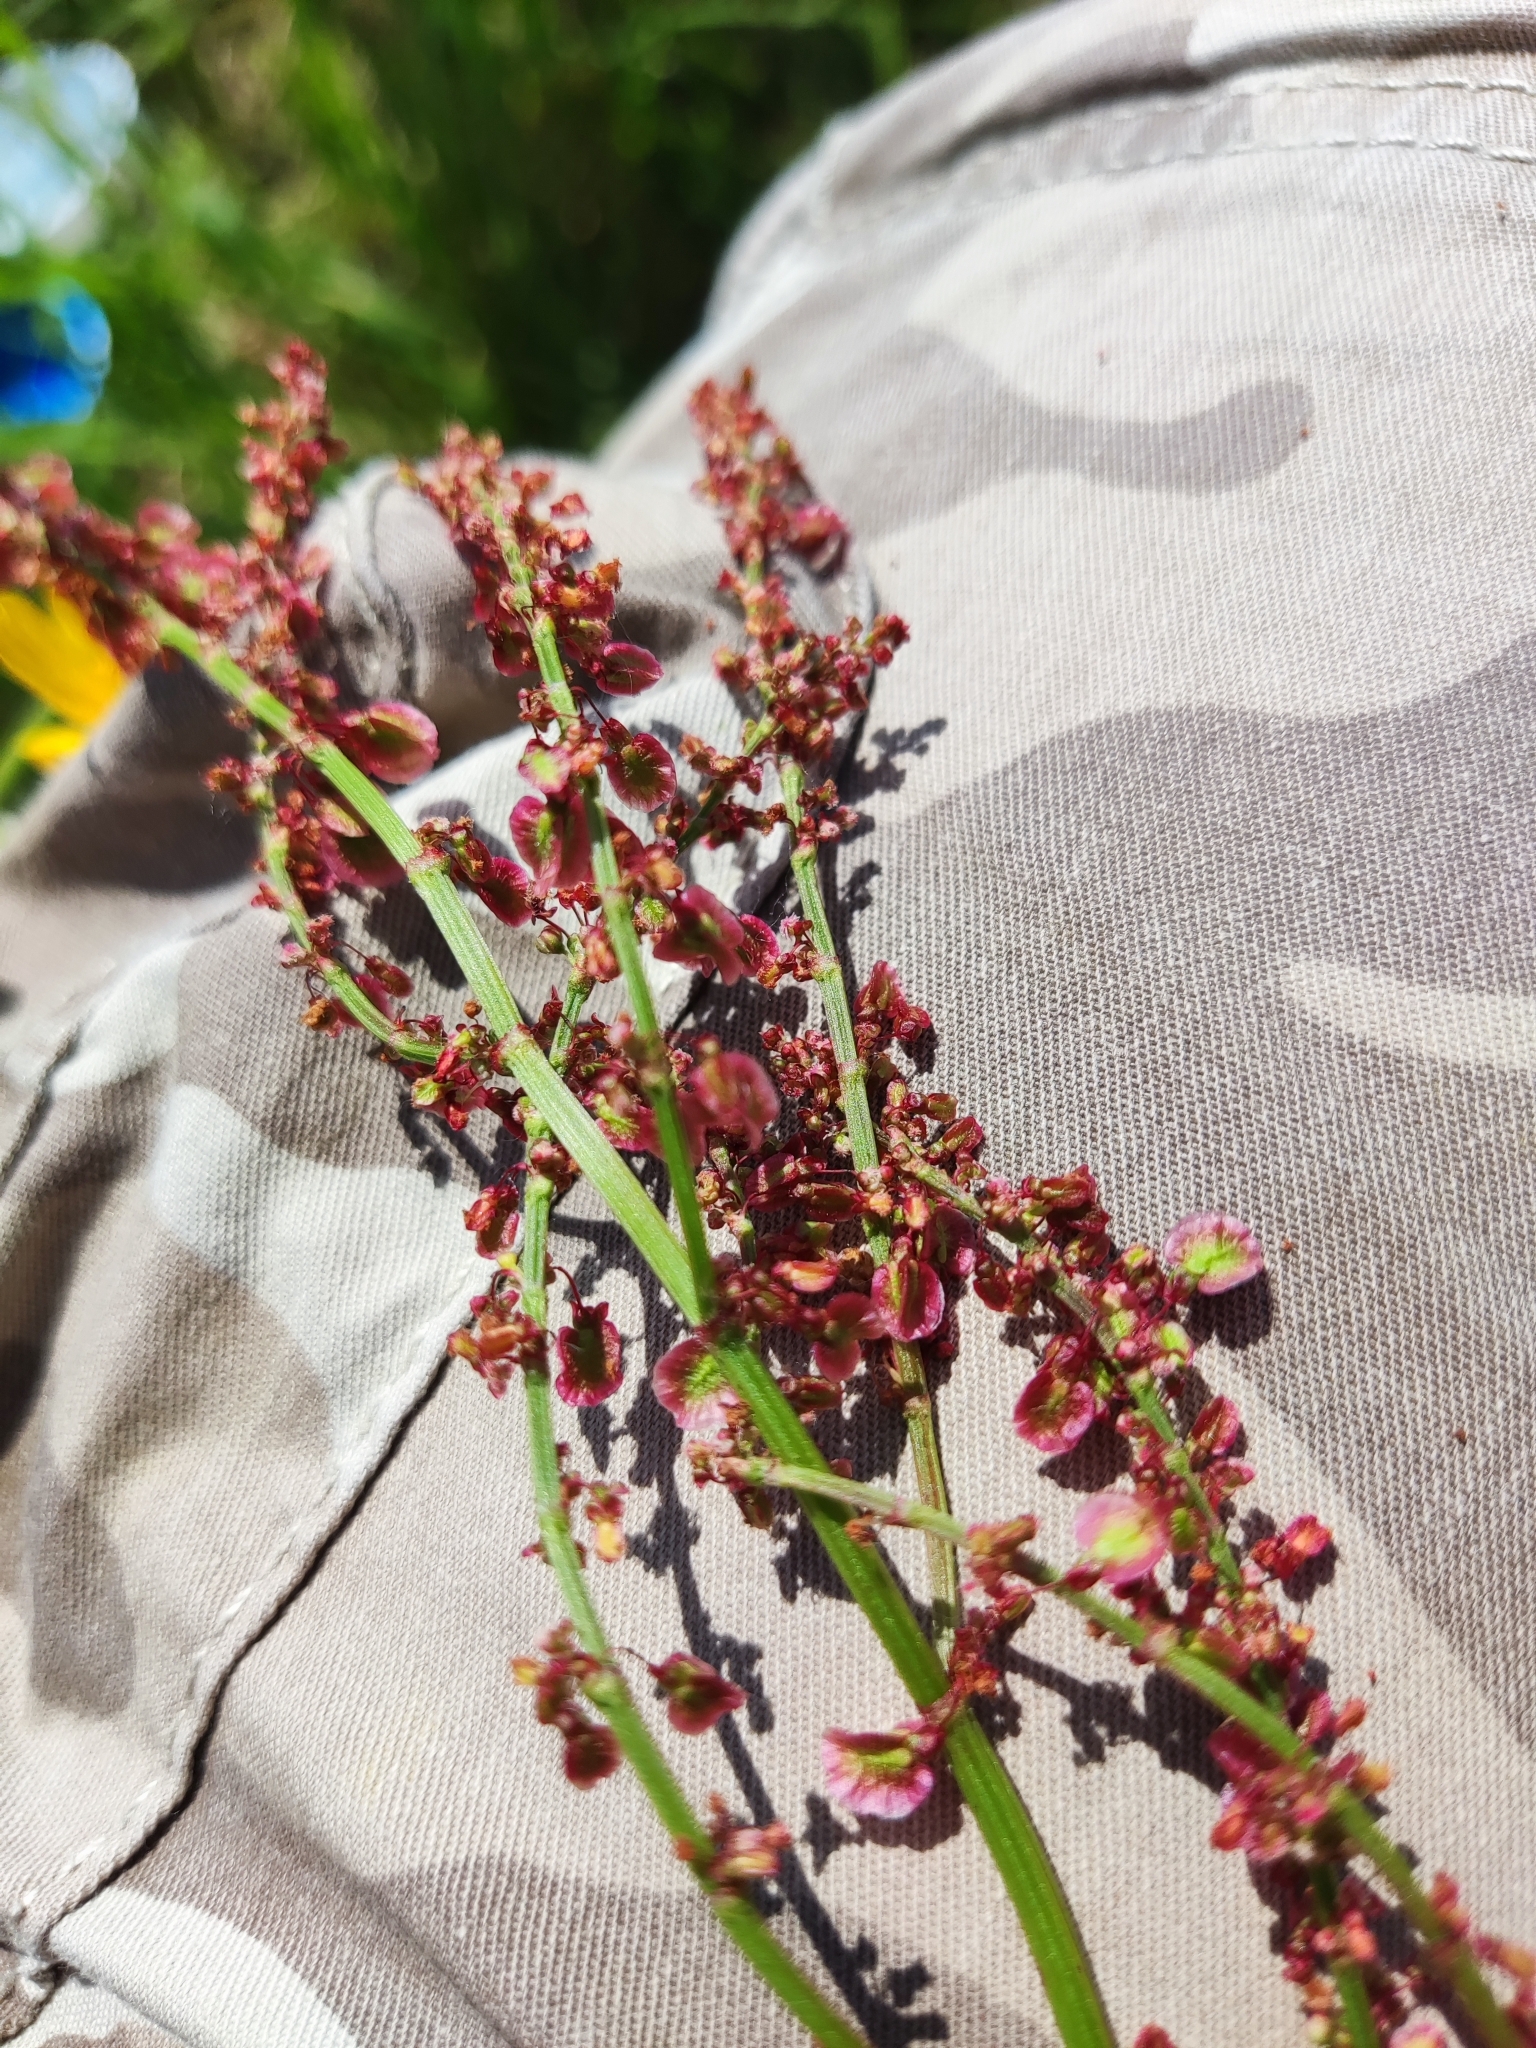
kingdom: Plantae
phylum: Tracheophyta
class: Magnoliopsida
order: Caryophyllales
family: Polygonaceae
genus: Rumex
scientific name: Rumex acetosa
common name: Garden sorrel
